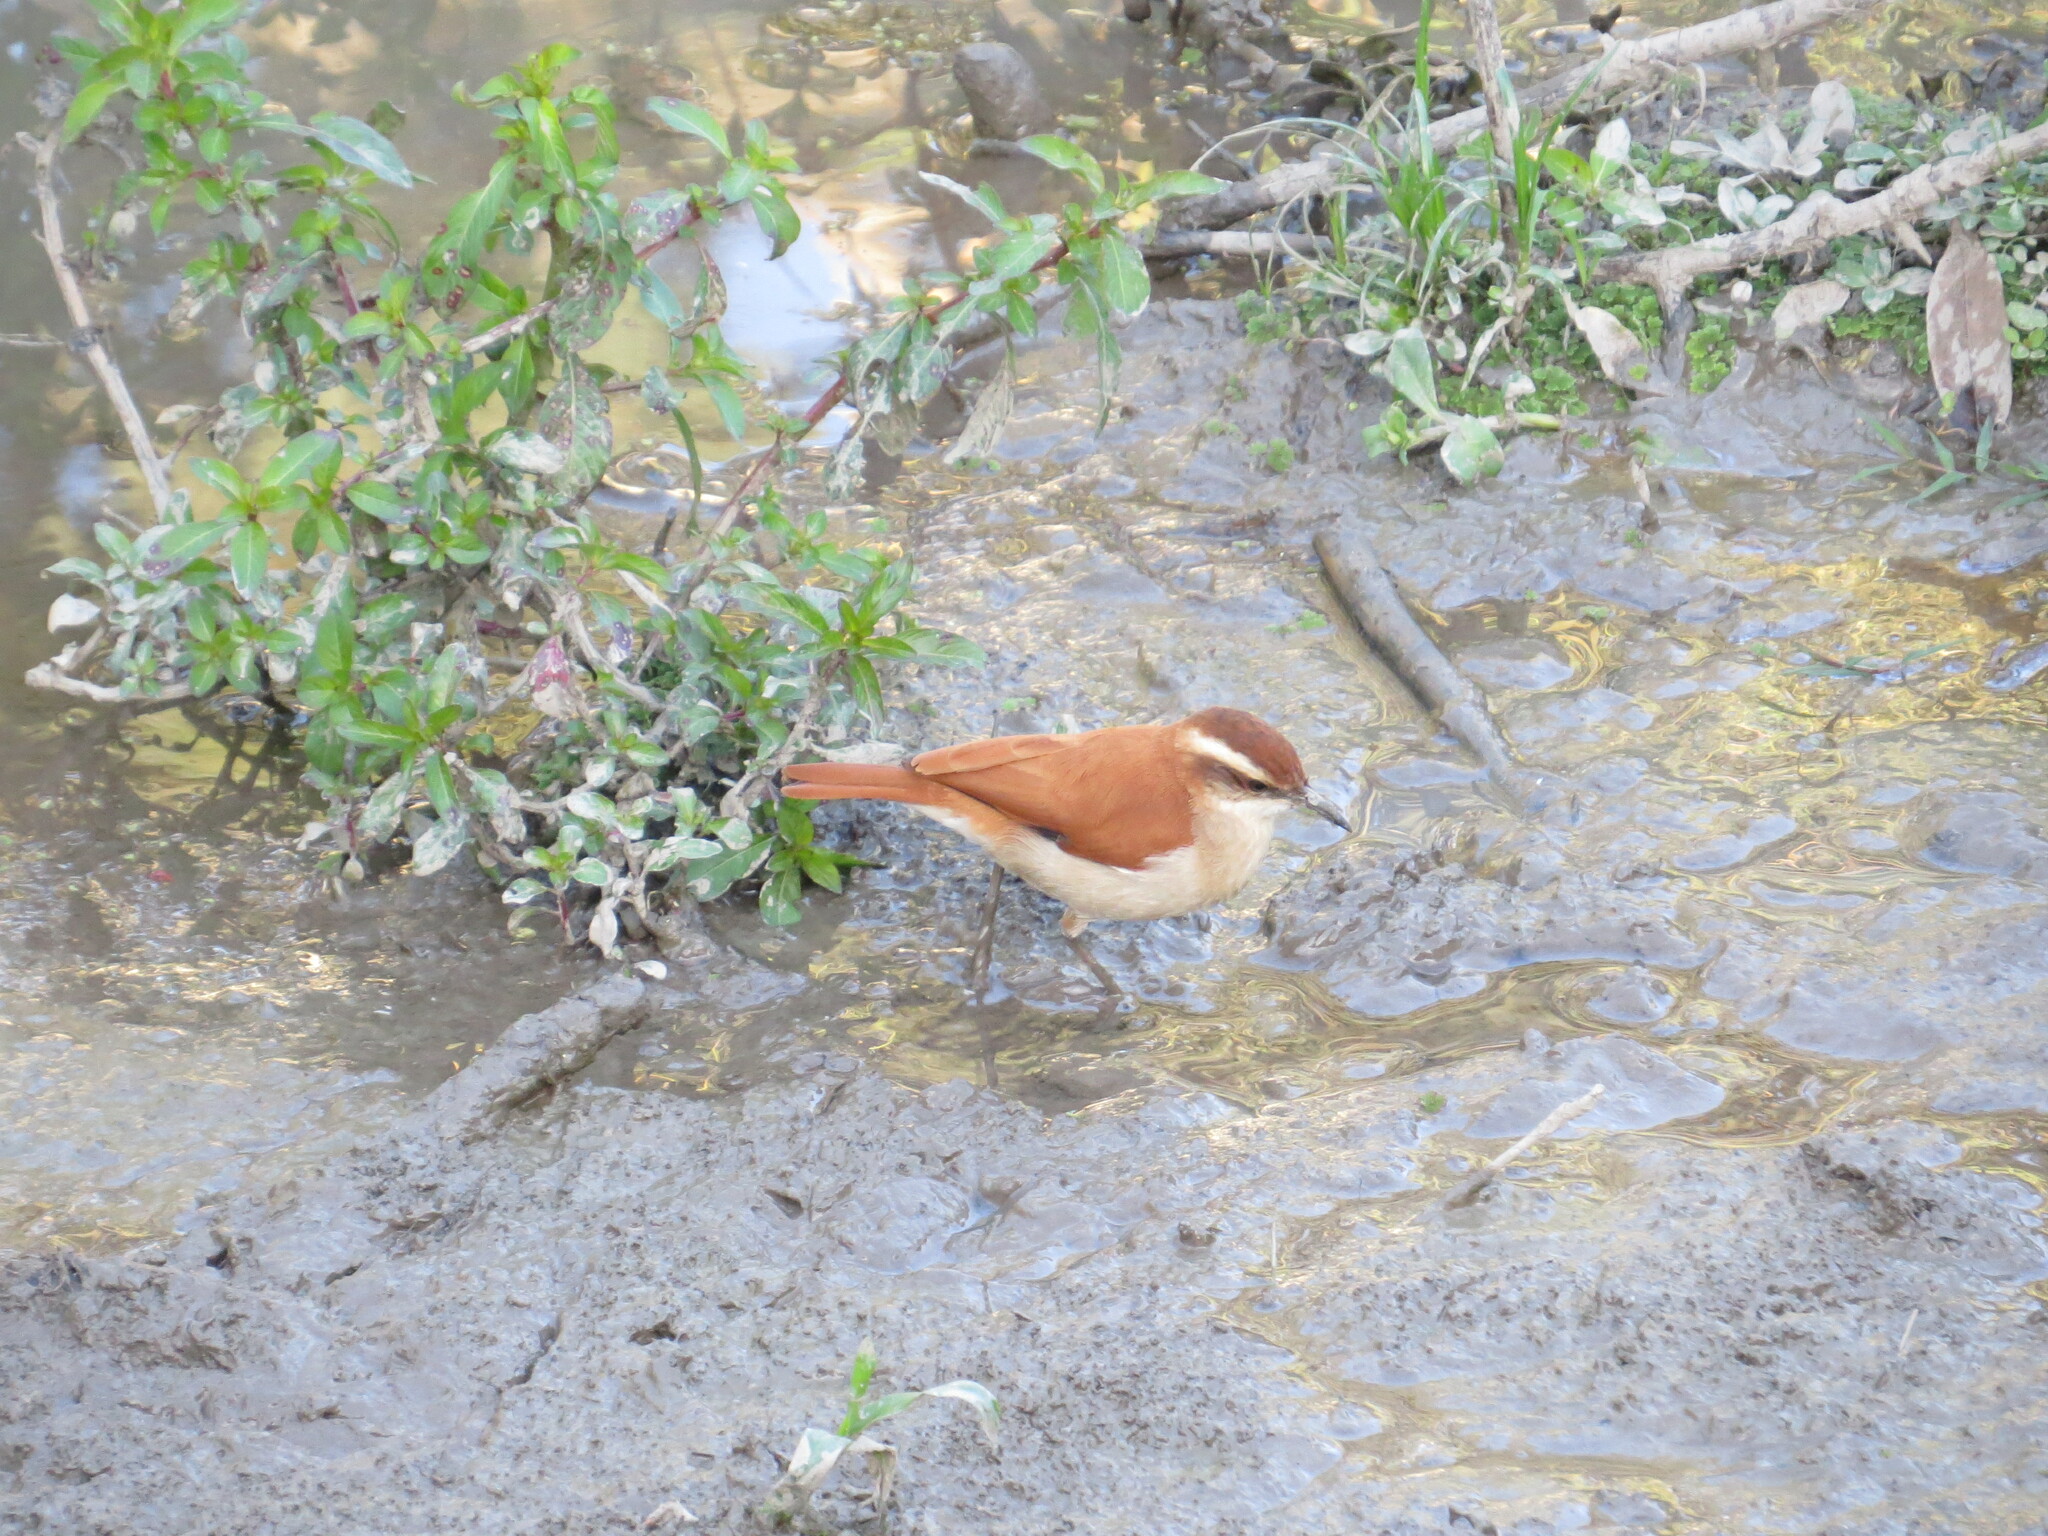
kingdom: Animalia
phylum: Chordata
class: Aves
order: Passeriformes
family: Furnariidae
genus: Furnarius
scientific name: Furnarius figulus
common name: Band-tailed hornero
